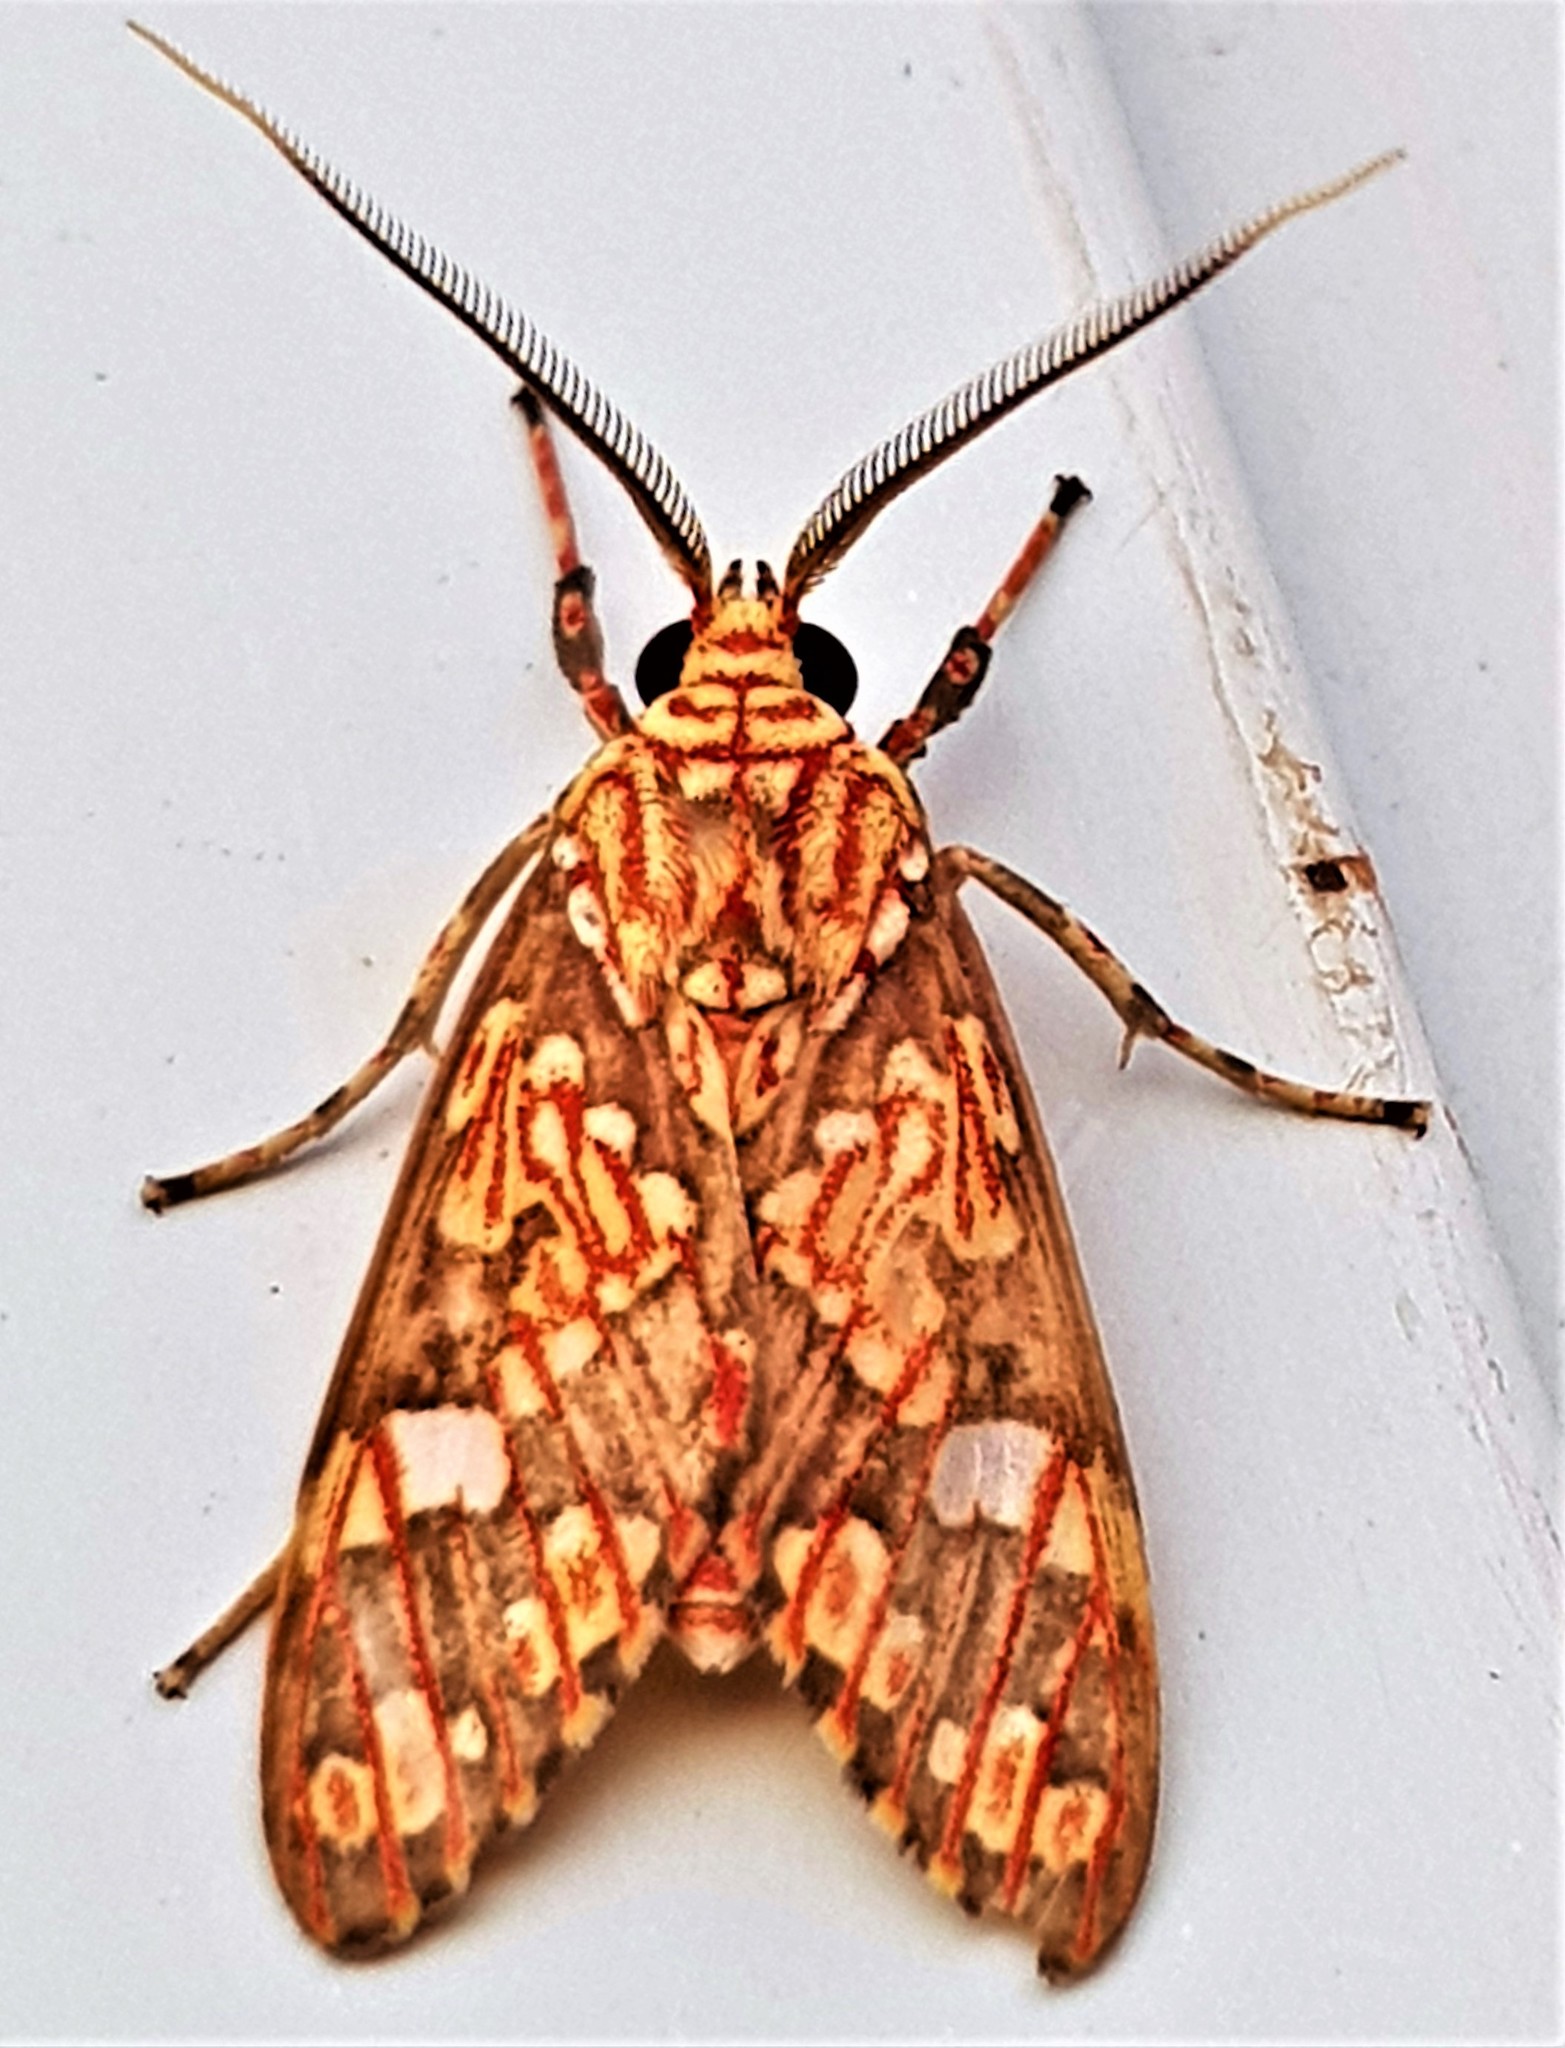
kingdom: Animalia
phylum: Arthropoda
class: Insecta
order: Lepidoptera
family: Erebidae
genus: Araeomolis
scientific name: Araeomolis rhodographa
